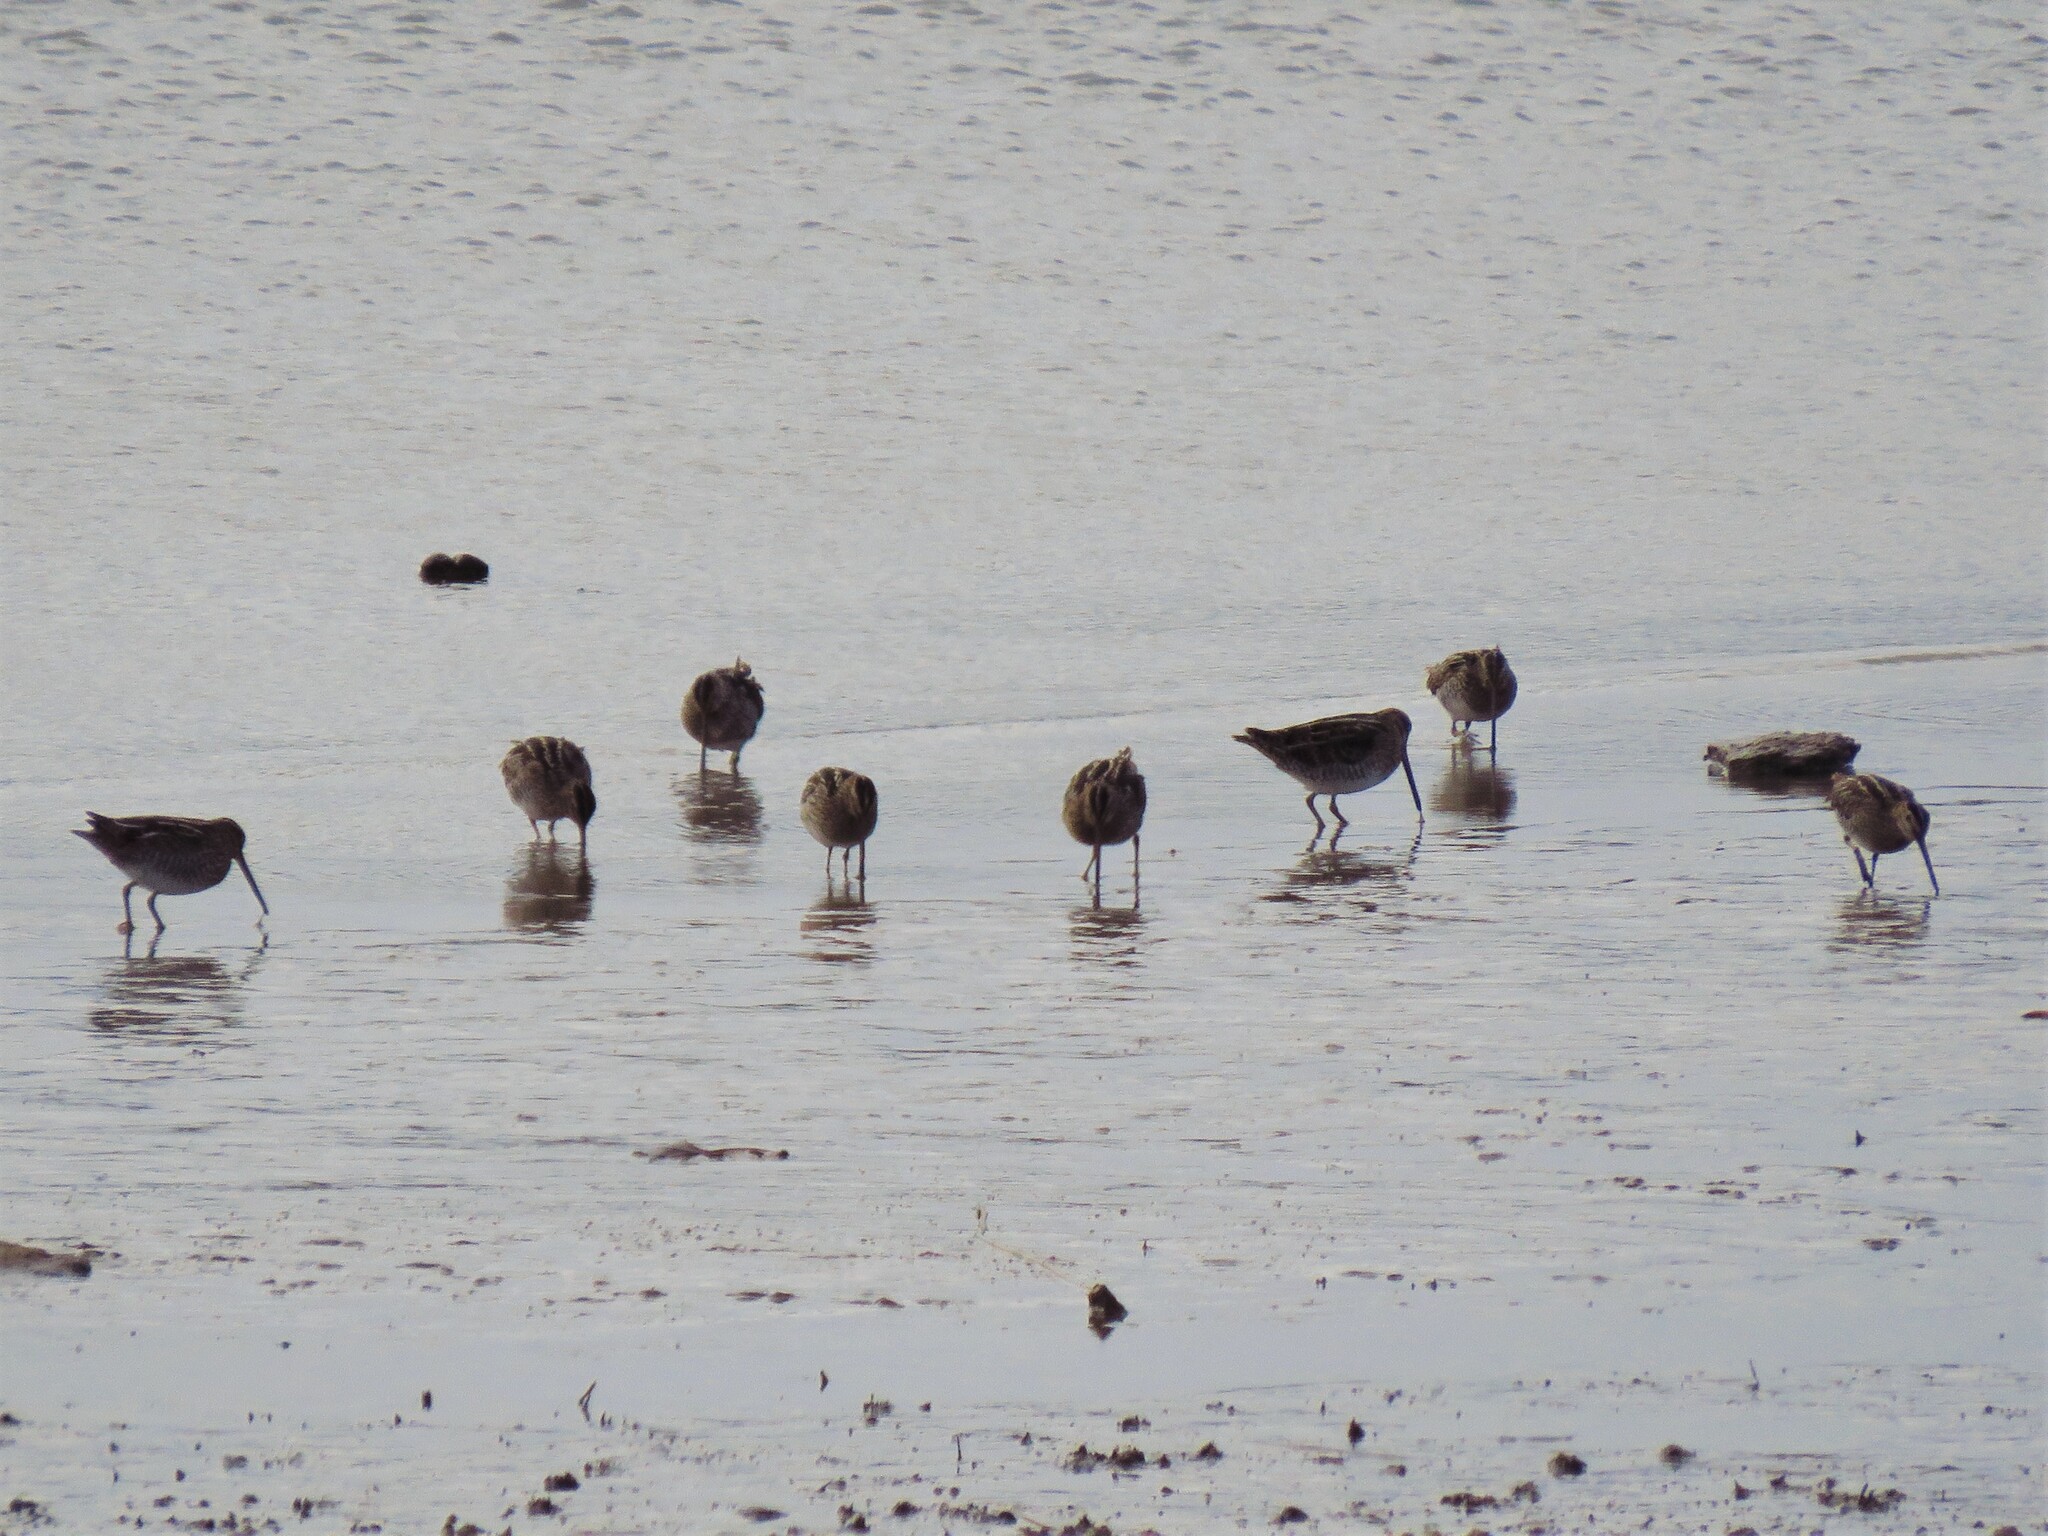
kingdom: Animalia
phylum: Chordata
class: Aves
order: Charadriiformes
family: Scolopacidae
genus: Gallinago
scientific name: Gallinago delicata
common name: Wilson's snipe
